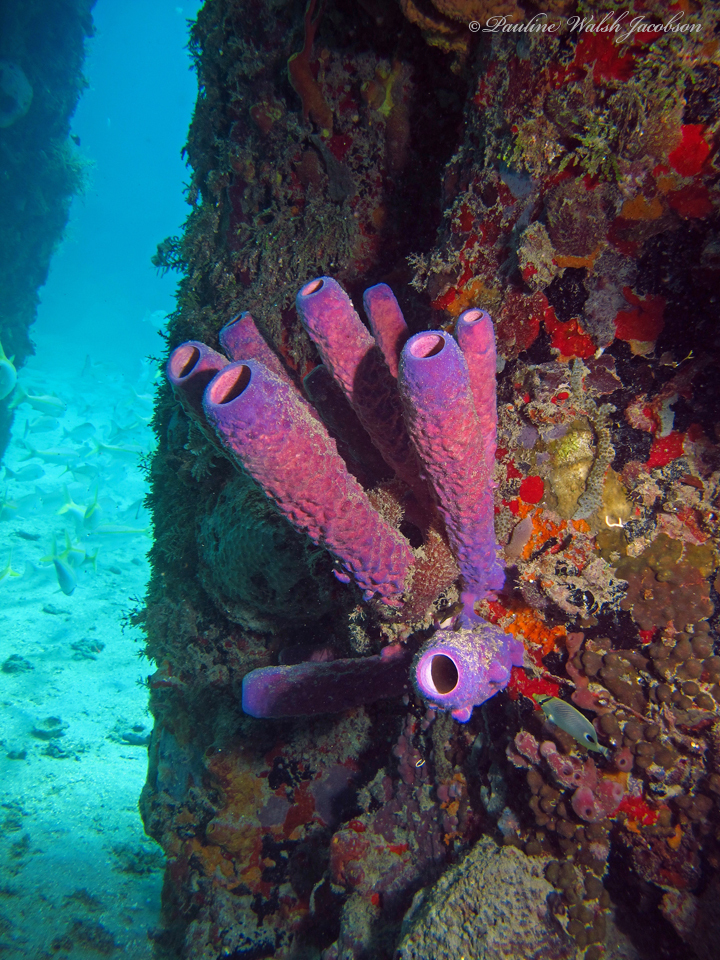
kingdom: Animalia
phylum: Porifera
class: Demospongiae
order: Verongiida
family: Aplysinidae
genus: Aplysina
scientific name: Aplysina archeri
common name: Stove-pipe sponge
